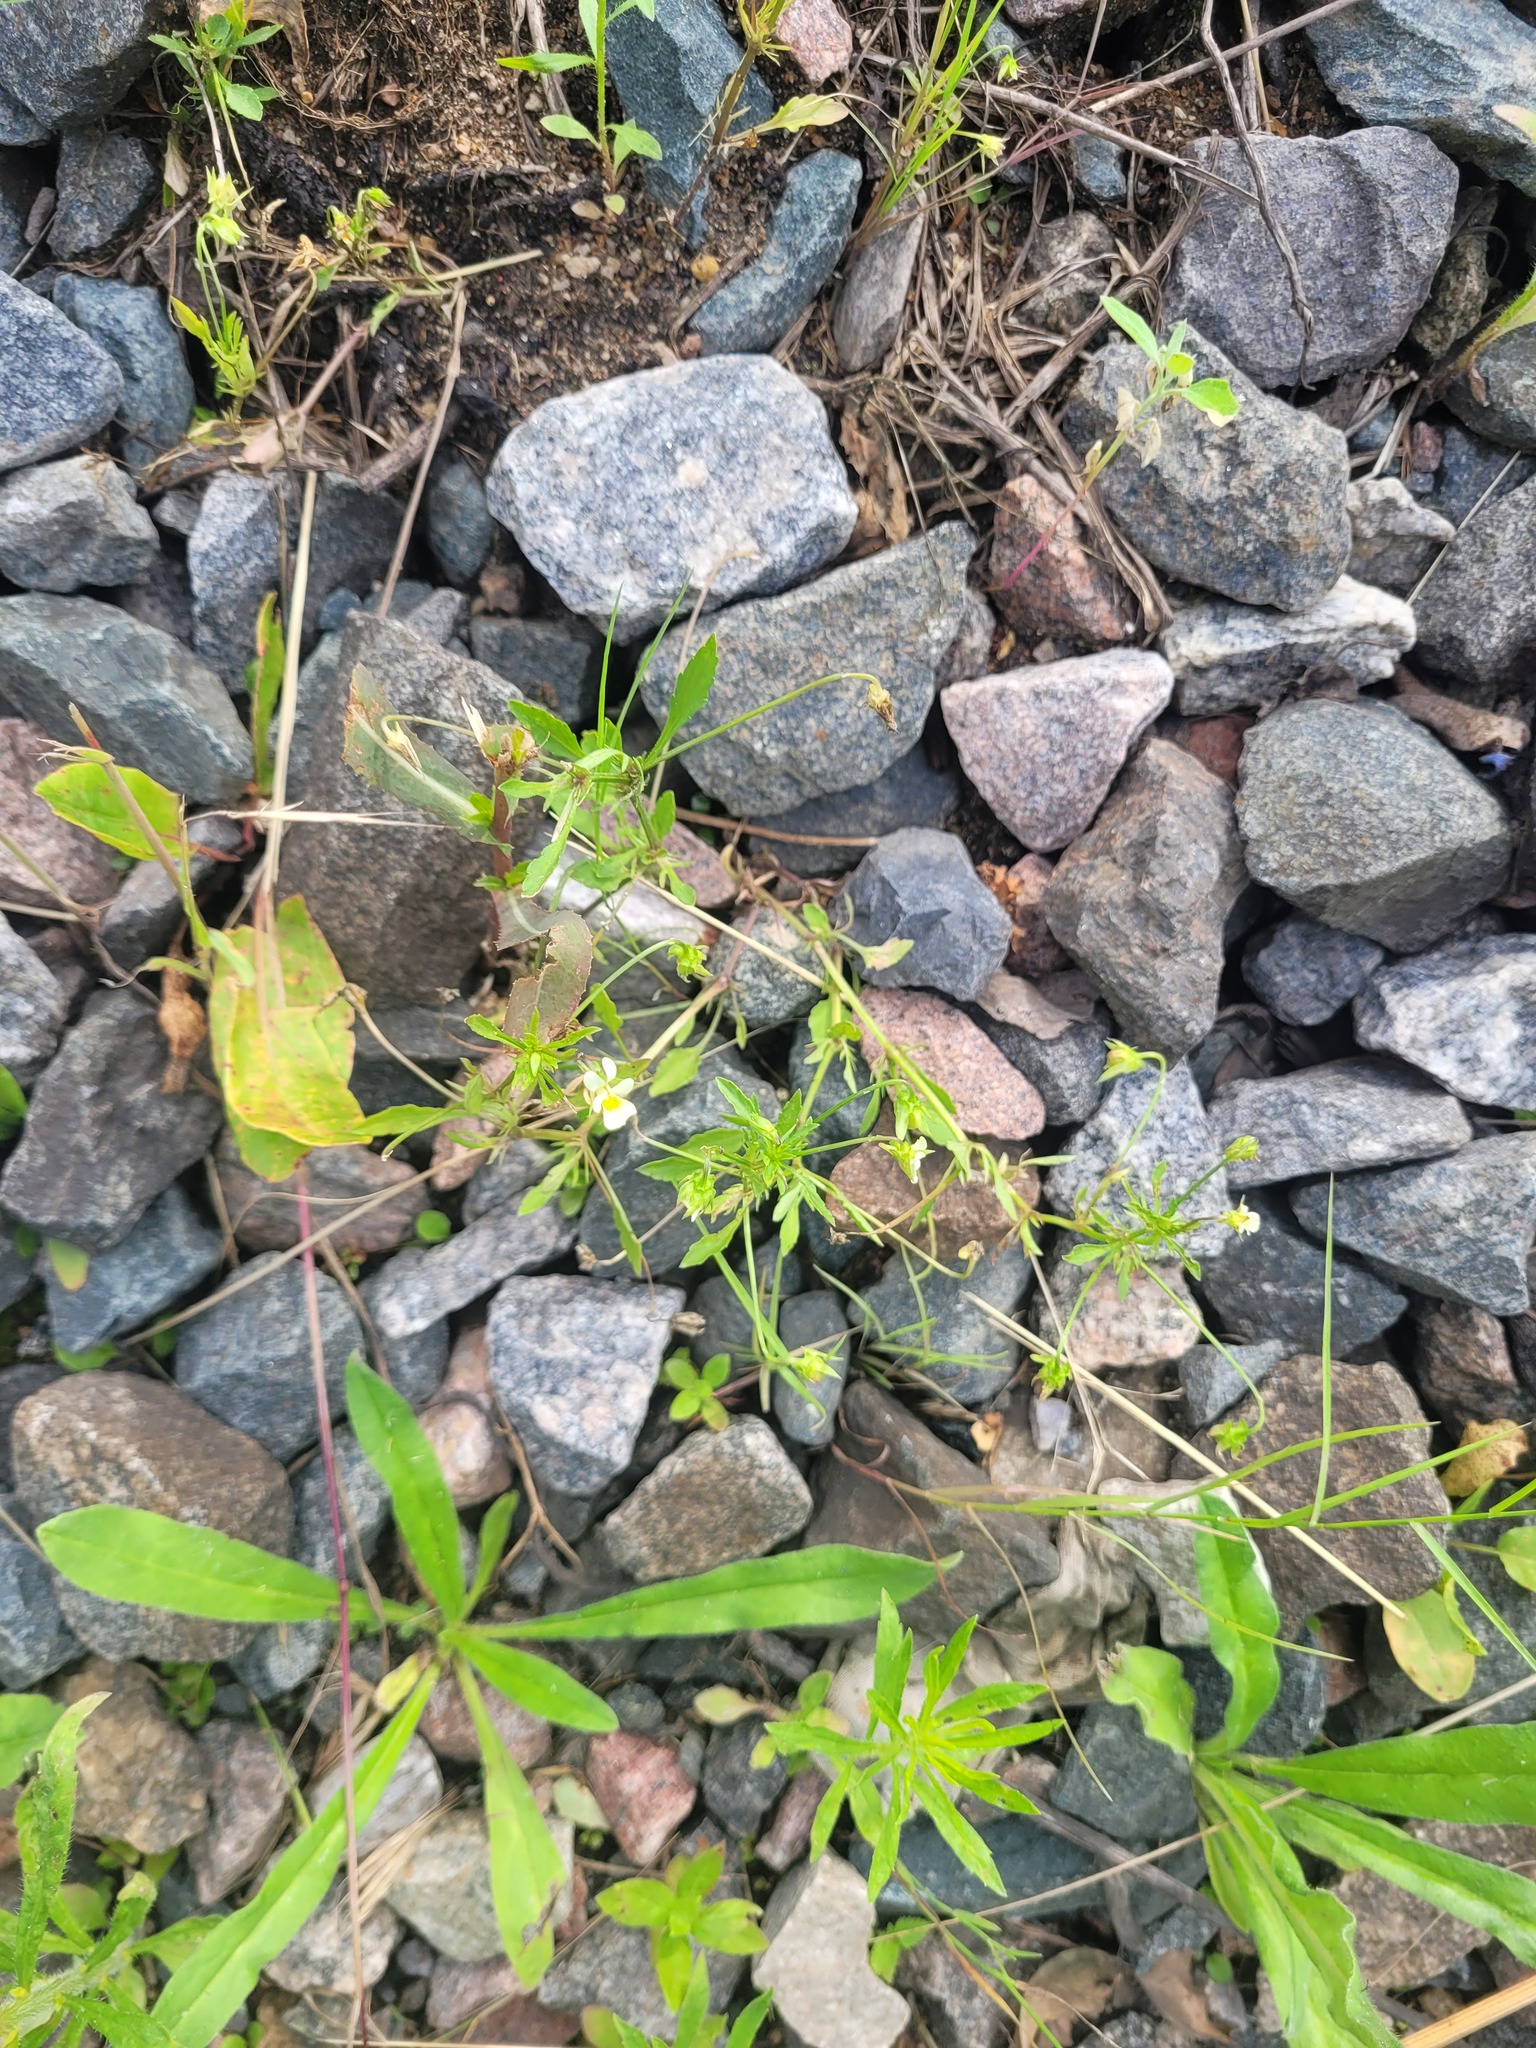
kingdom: Plantae
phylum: Tracheophyta
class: Magnoliopsida
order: Malpighiales
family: Violaceae
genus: Viola
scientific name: Viola arvensis
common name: Field pansy
